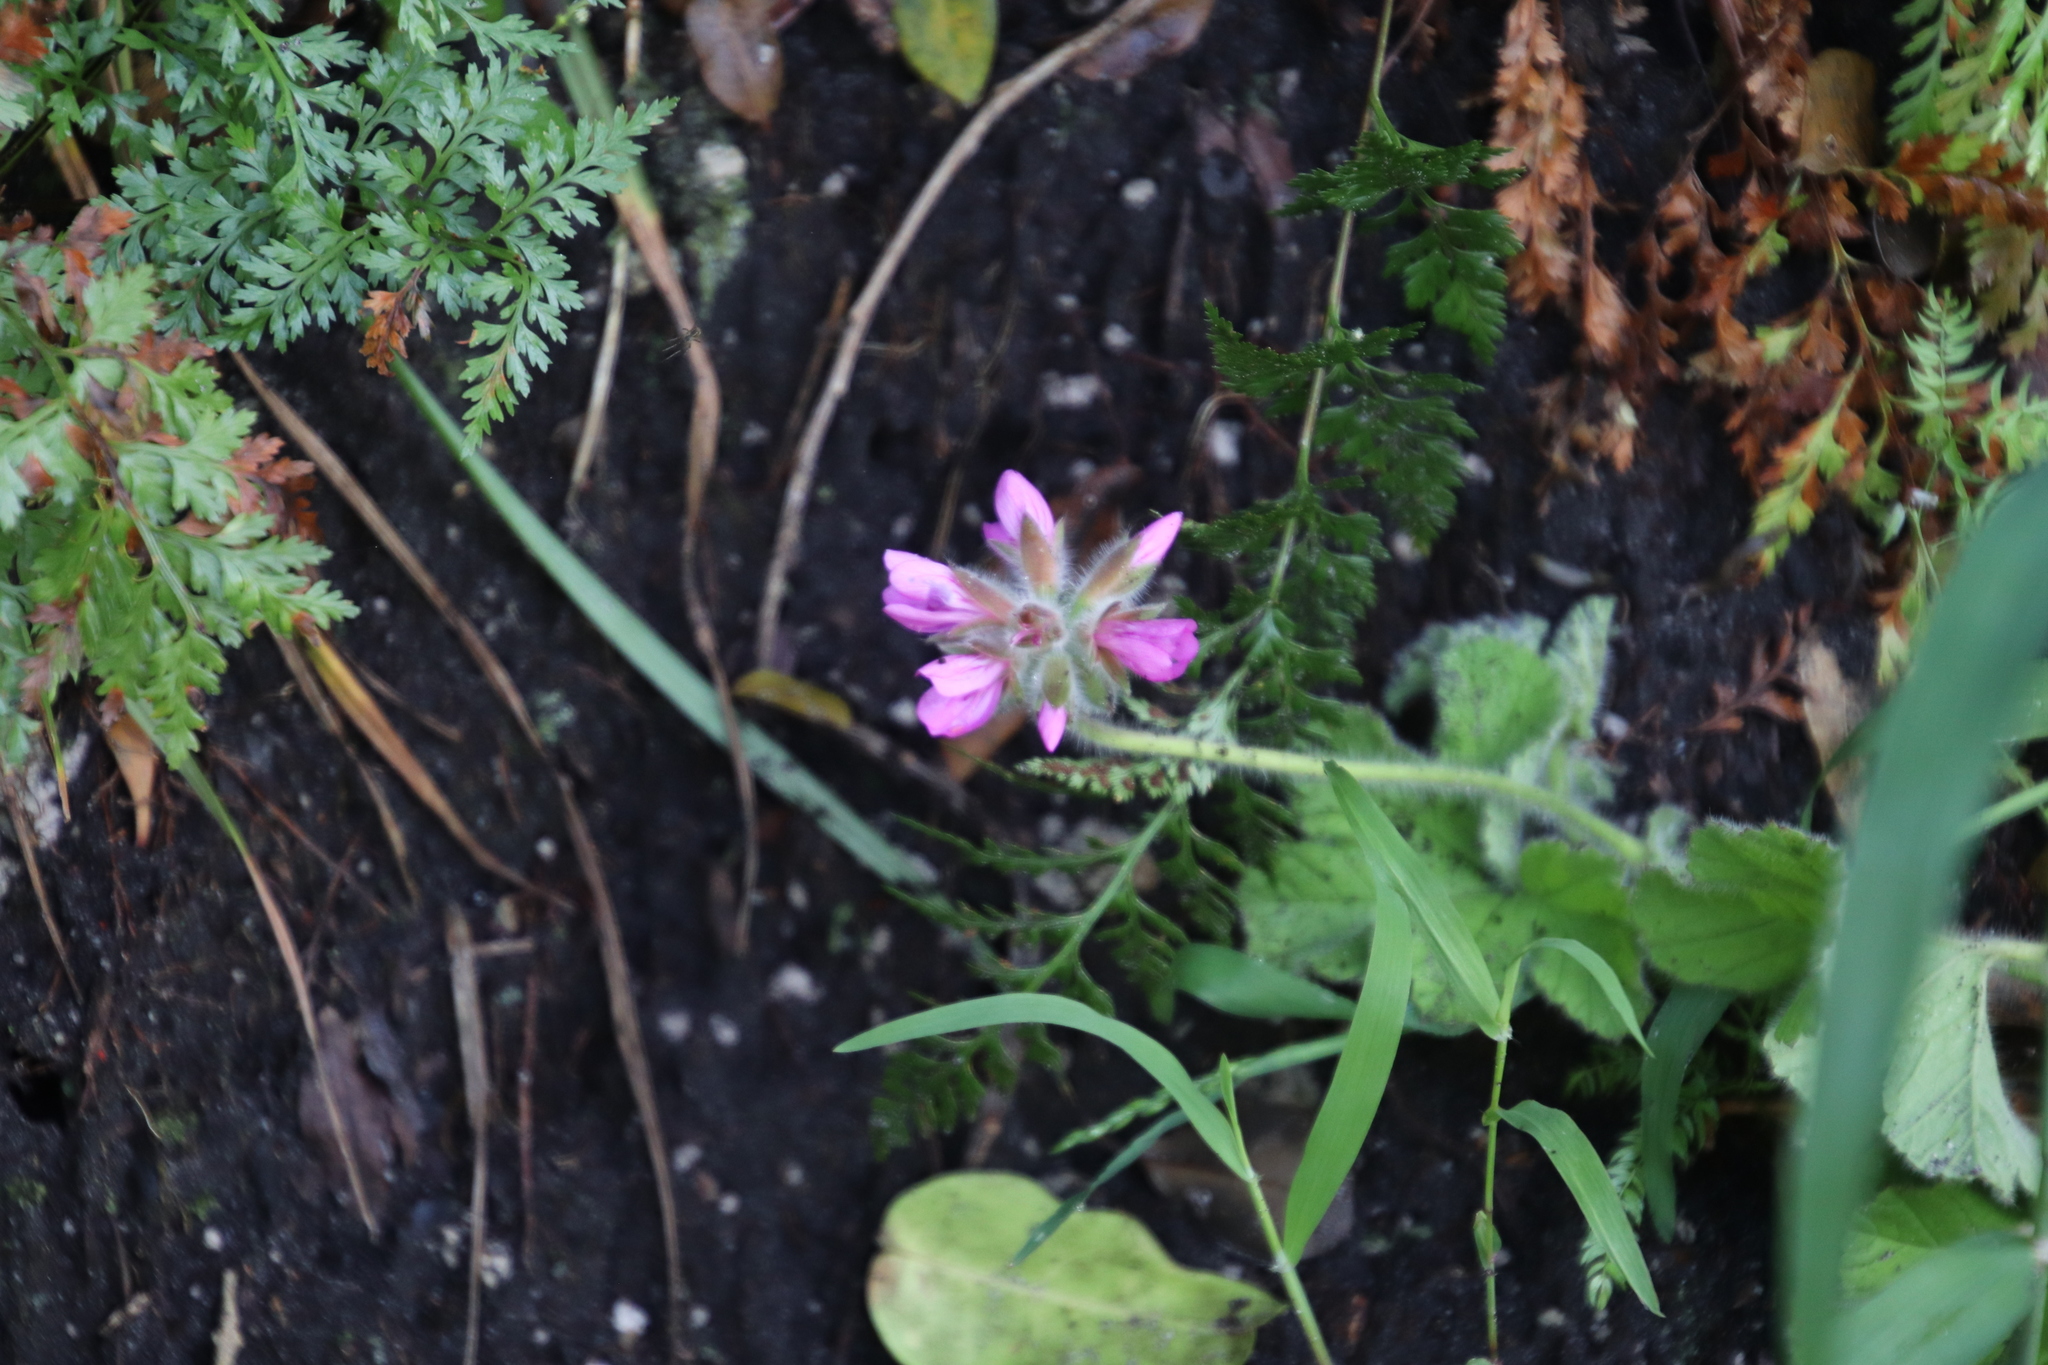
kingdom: Plantae
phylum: Tracheophyta
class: Magnoliopsida
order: Geraniales
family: Geraniaceae
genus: Pelargonium
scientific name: Pelargonium capitatum
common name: Rose scented geranium
